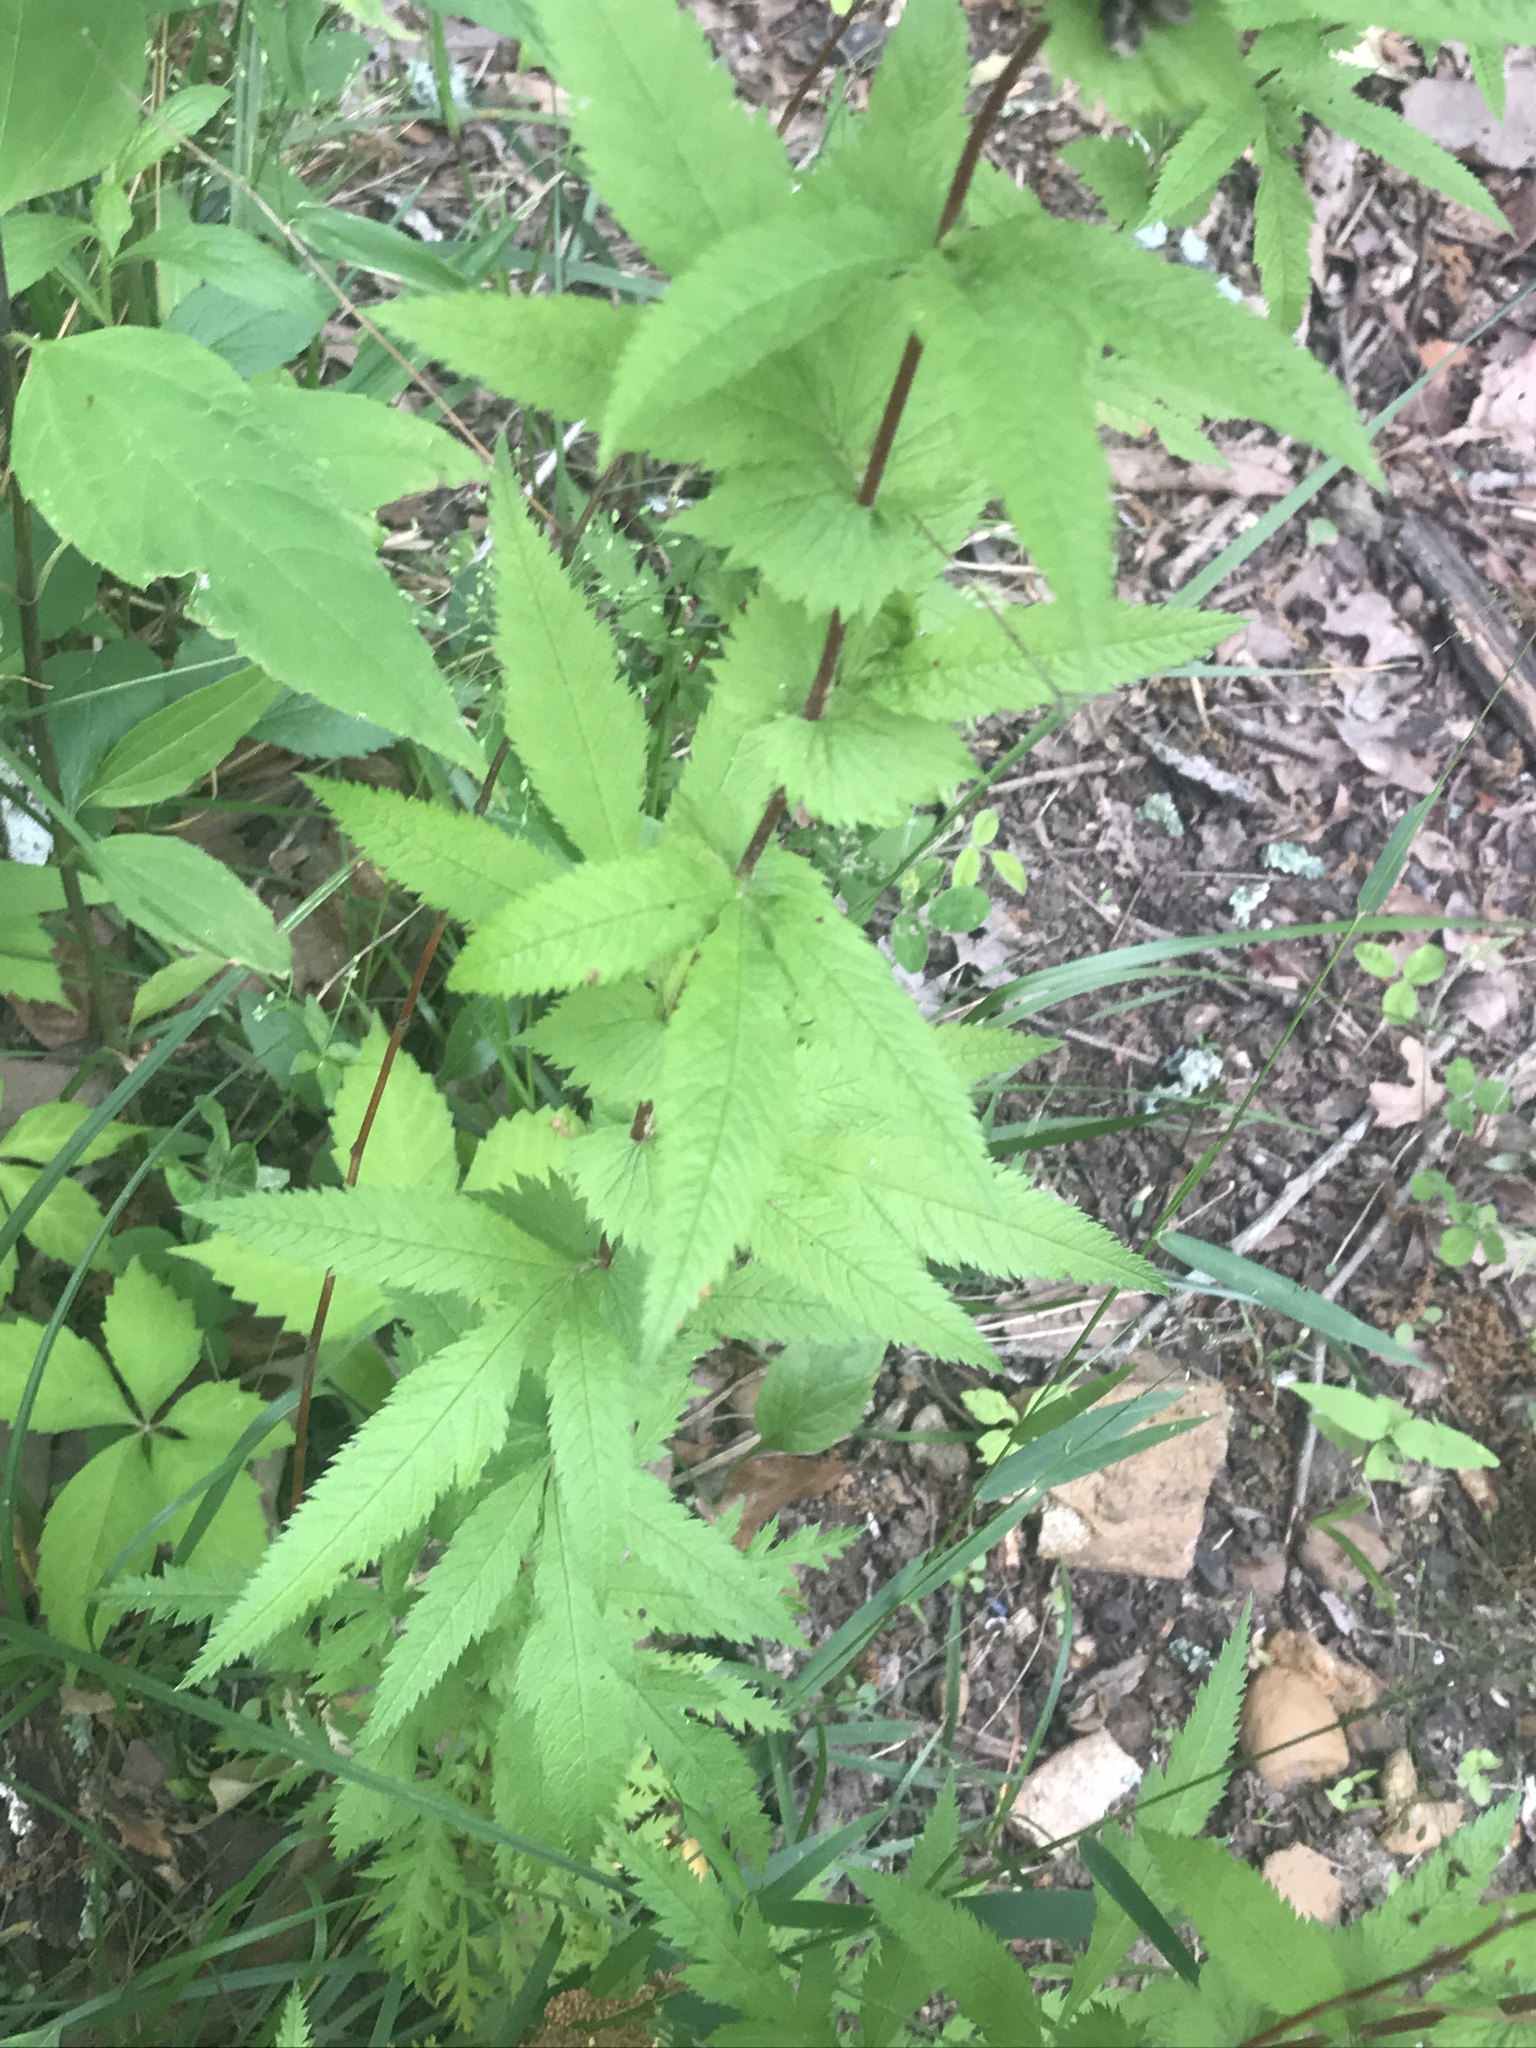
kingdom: Plantae
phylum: Tracheophyta
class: Magnoliopsida
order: Rosales
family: Rosaceae
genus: Gillenia
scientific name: Gillenia stipulata
